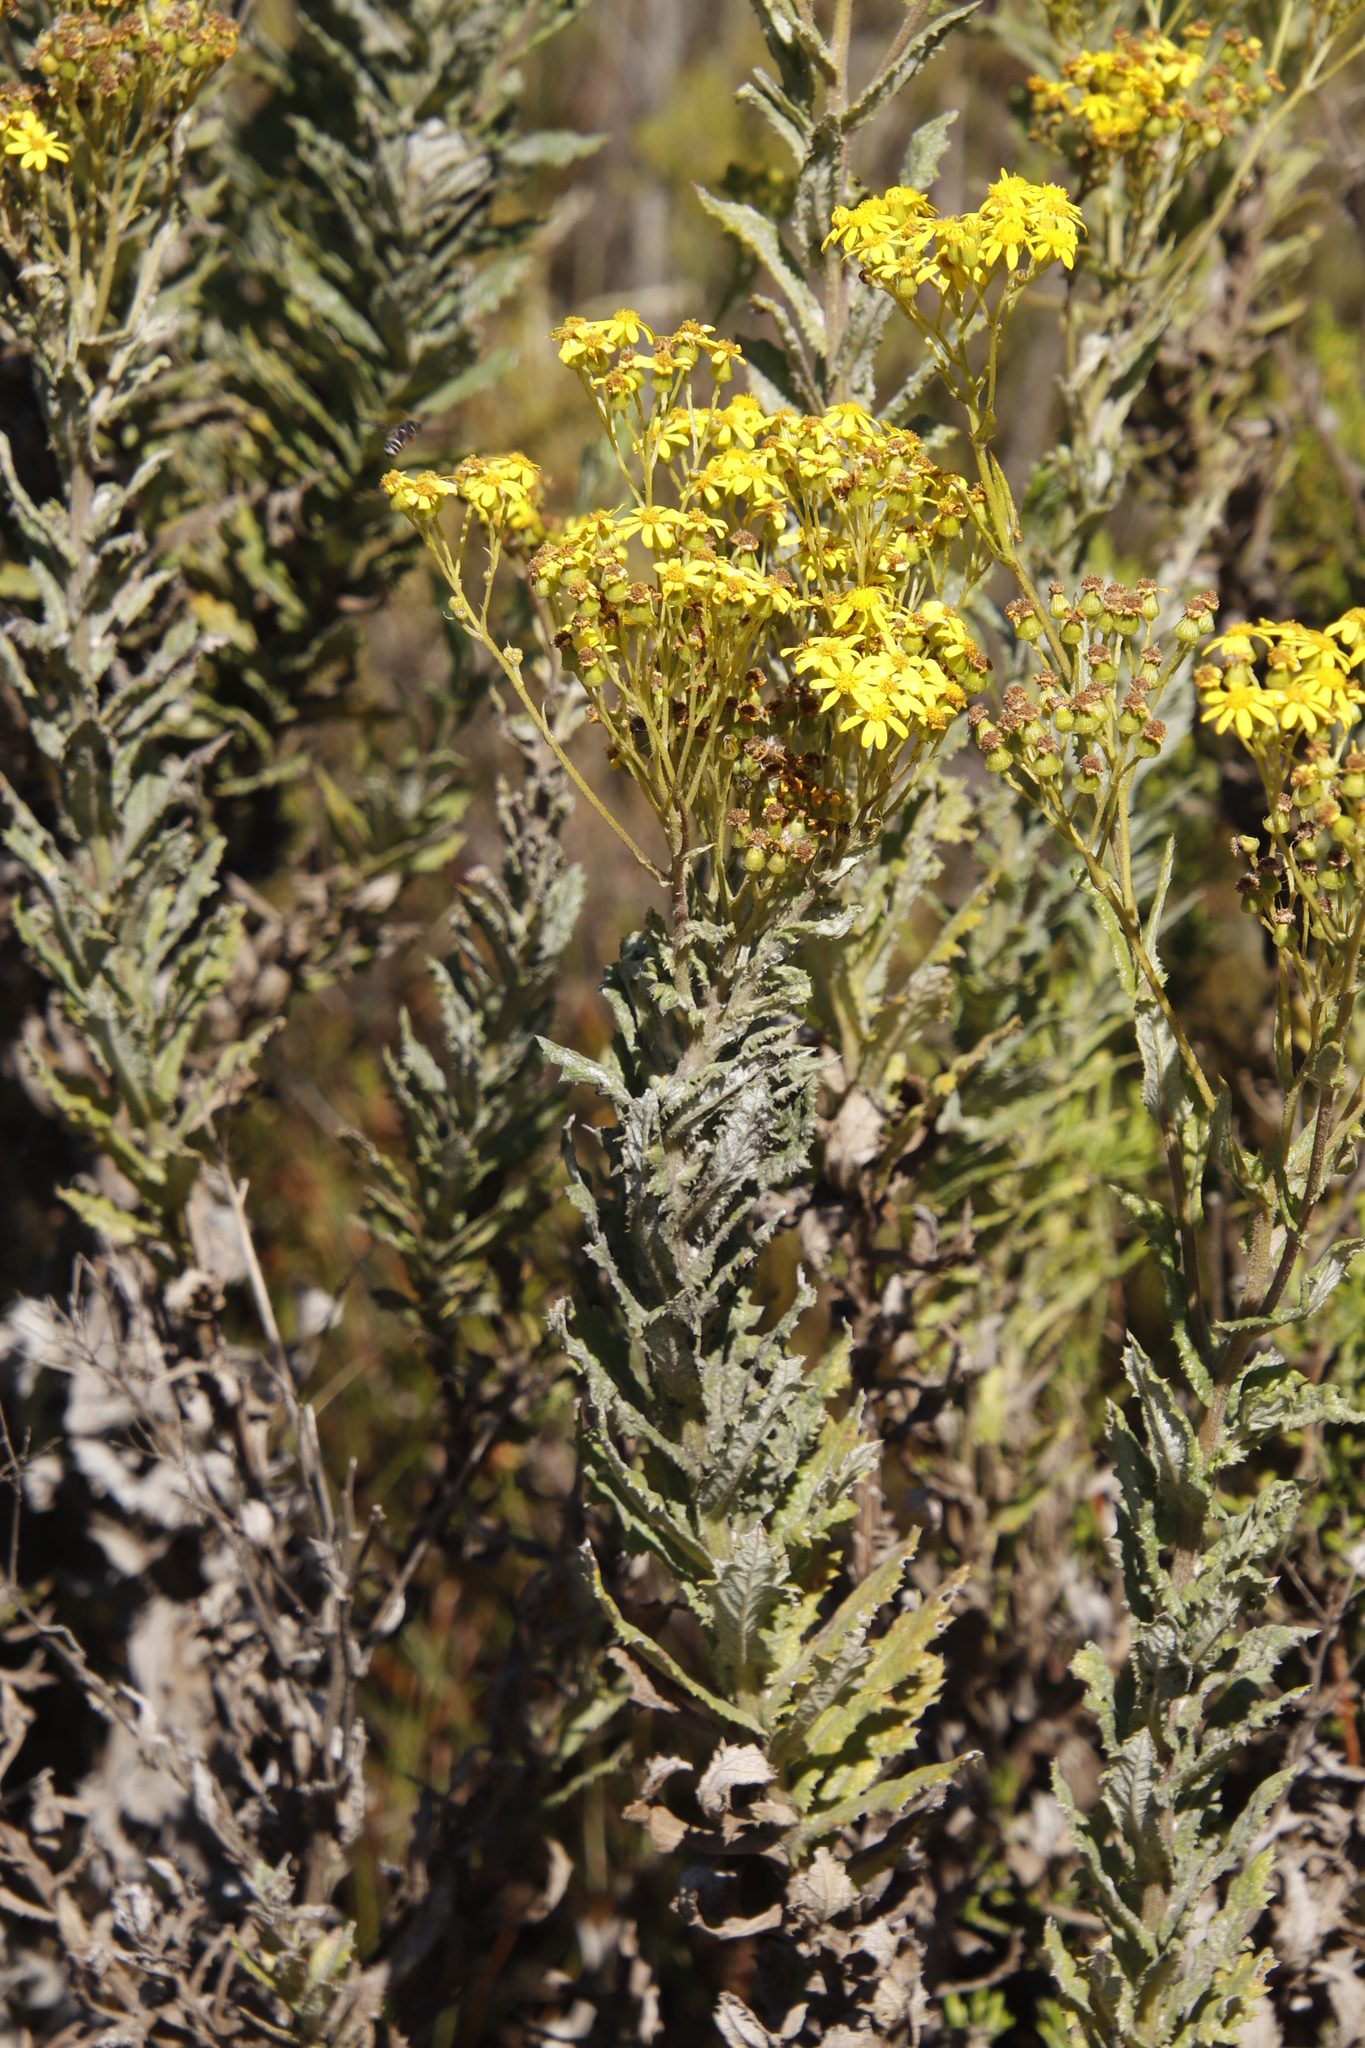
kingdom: Plantae
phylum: Tracheophyta
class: Magnoliopsida
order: Asterales
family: Asteraceae
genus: Senecio
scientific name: Senecio rigidus
